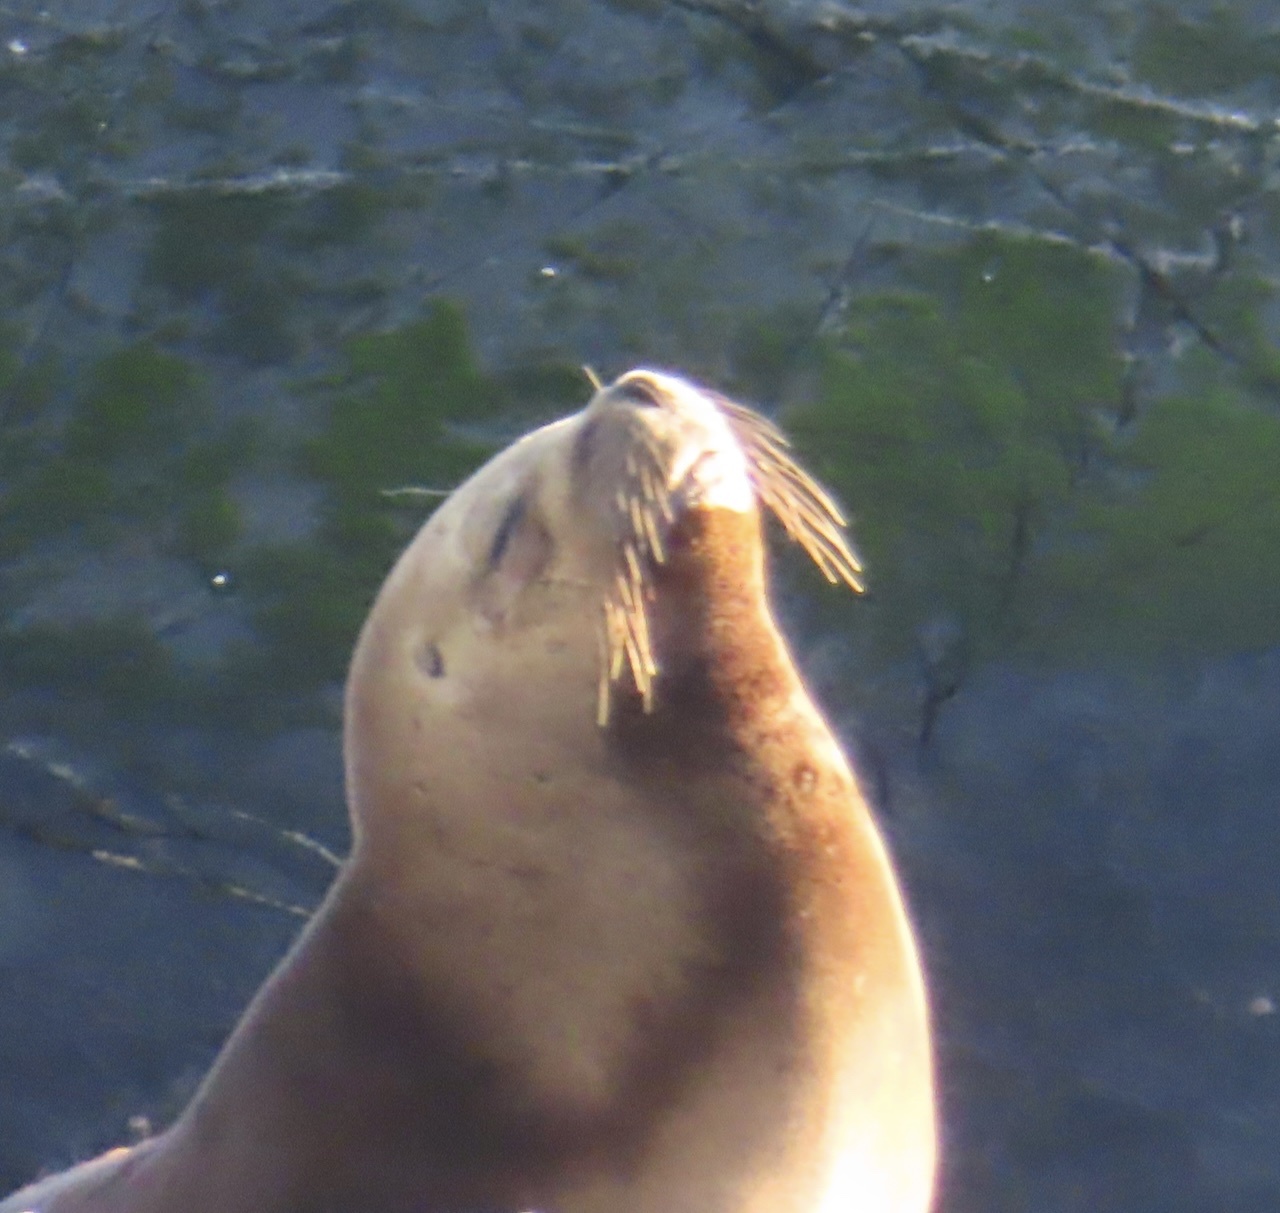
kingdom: Animalia
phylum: Chordata
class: Mammalia
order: Carnivora
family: Otariidae
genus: Otaria
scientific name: Otaria byronia
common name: South american sea lion
